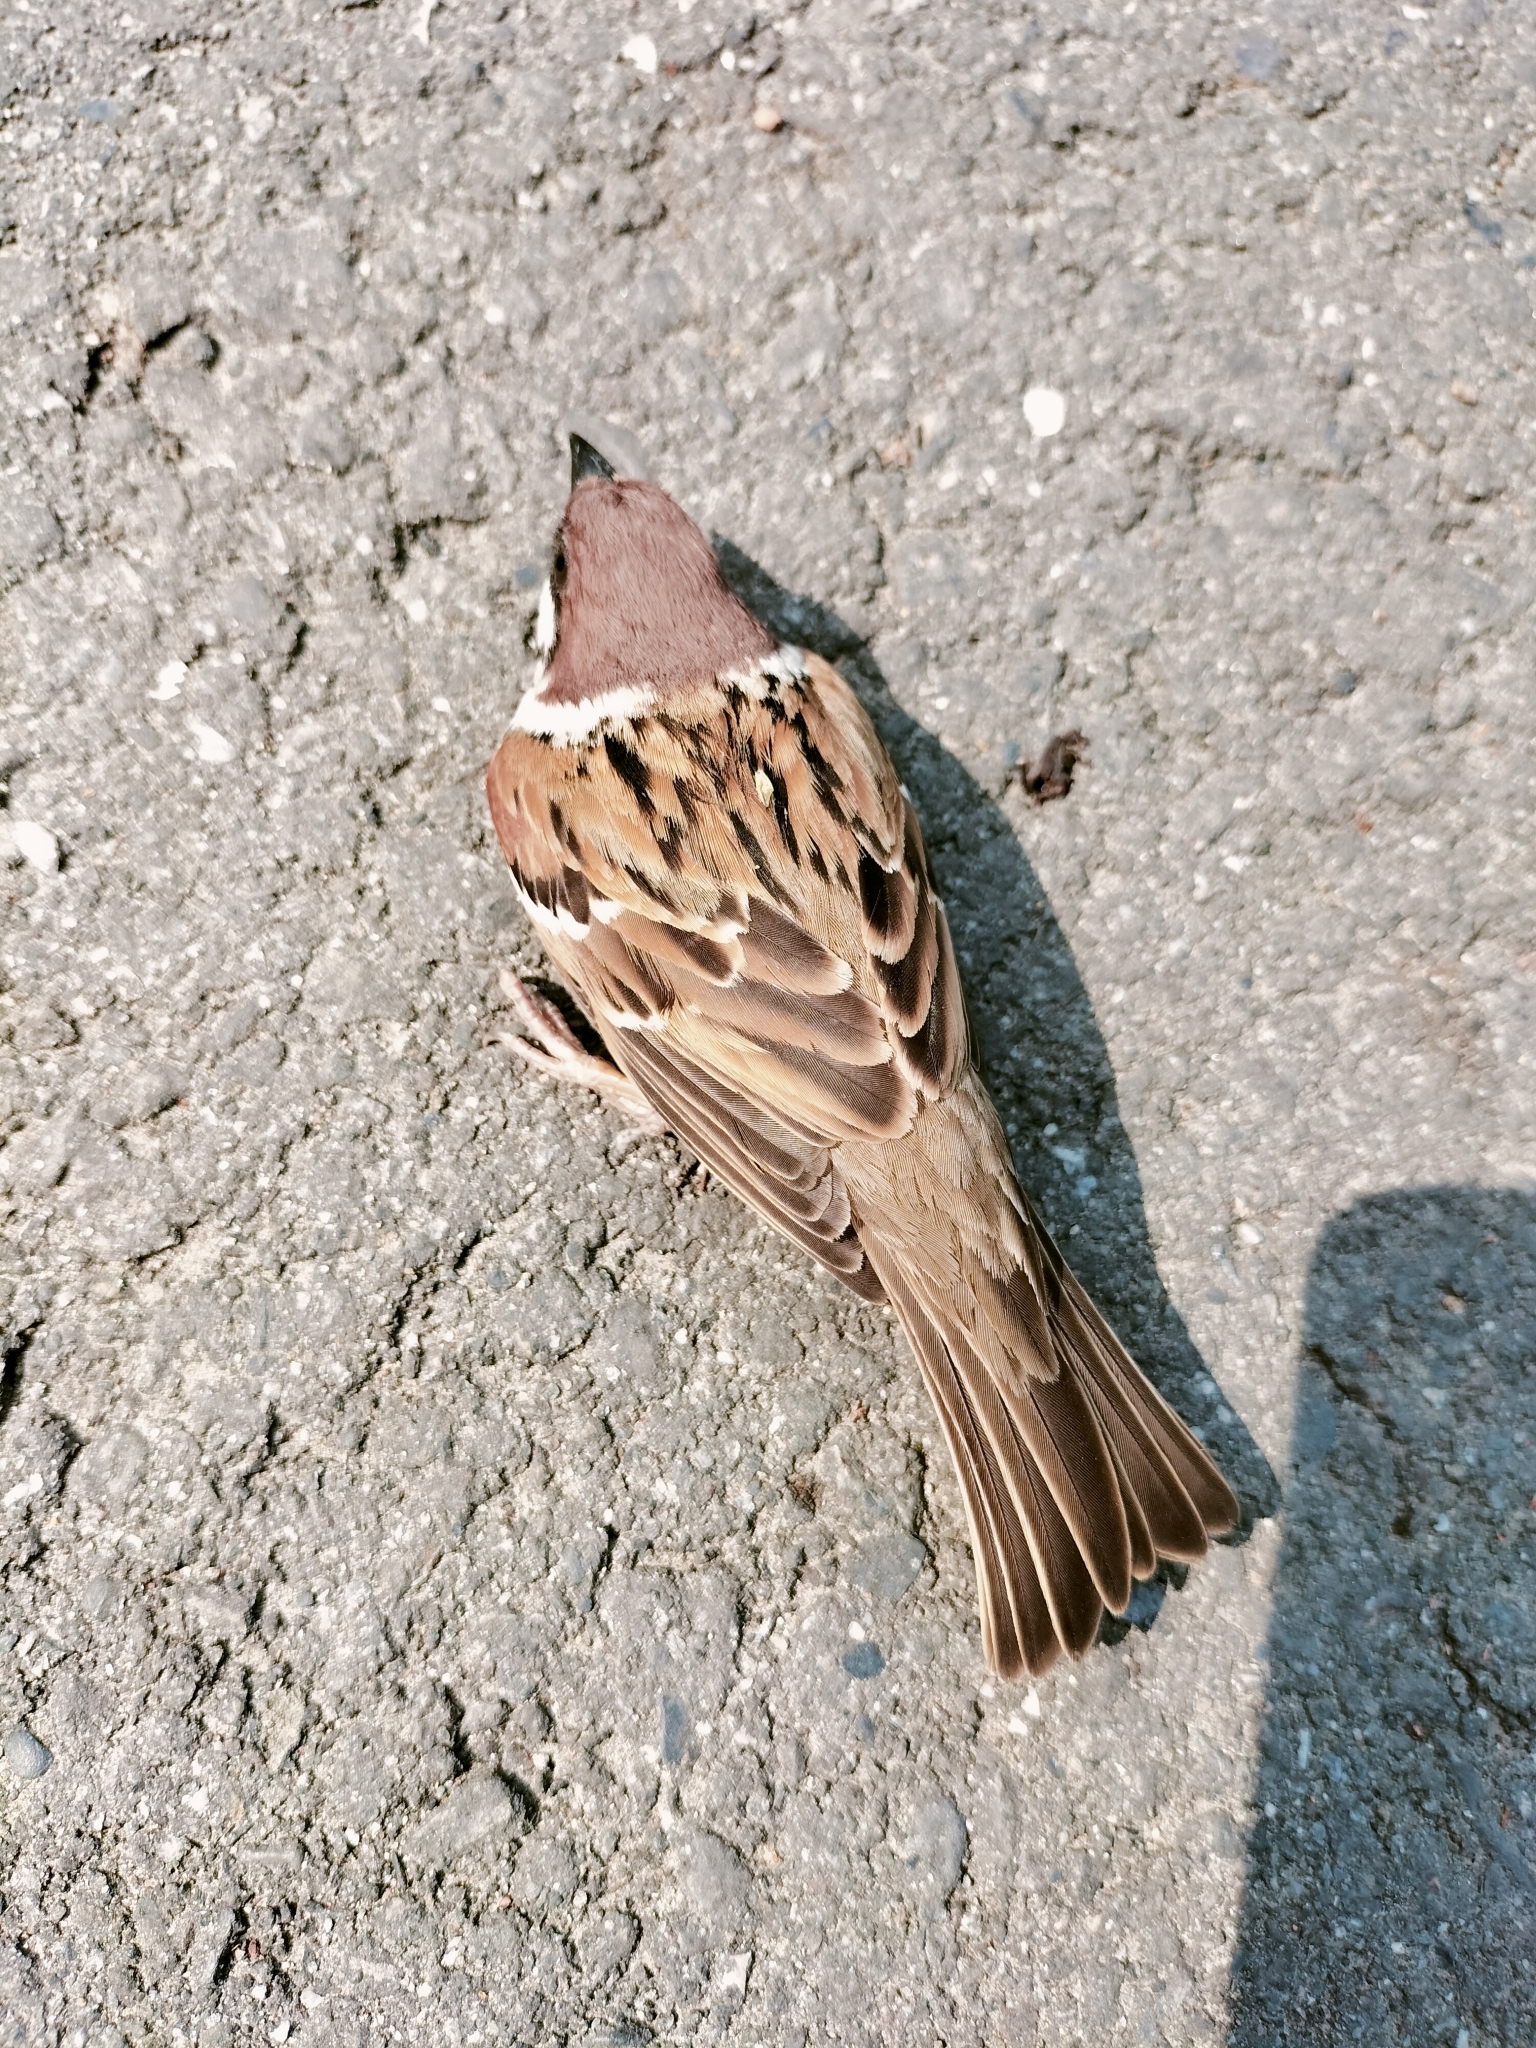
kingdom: Animalia
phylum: Chordata
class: Aves
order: Passeriformes
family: Passeridae
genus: Passer
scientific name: Passer montanus
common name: Eurasian tree sparrow
